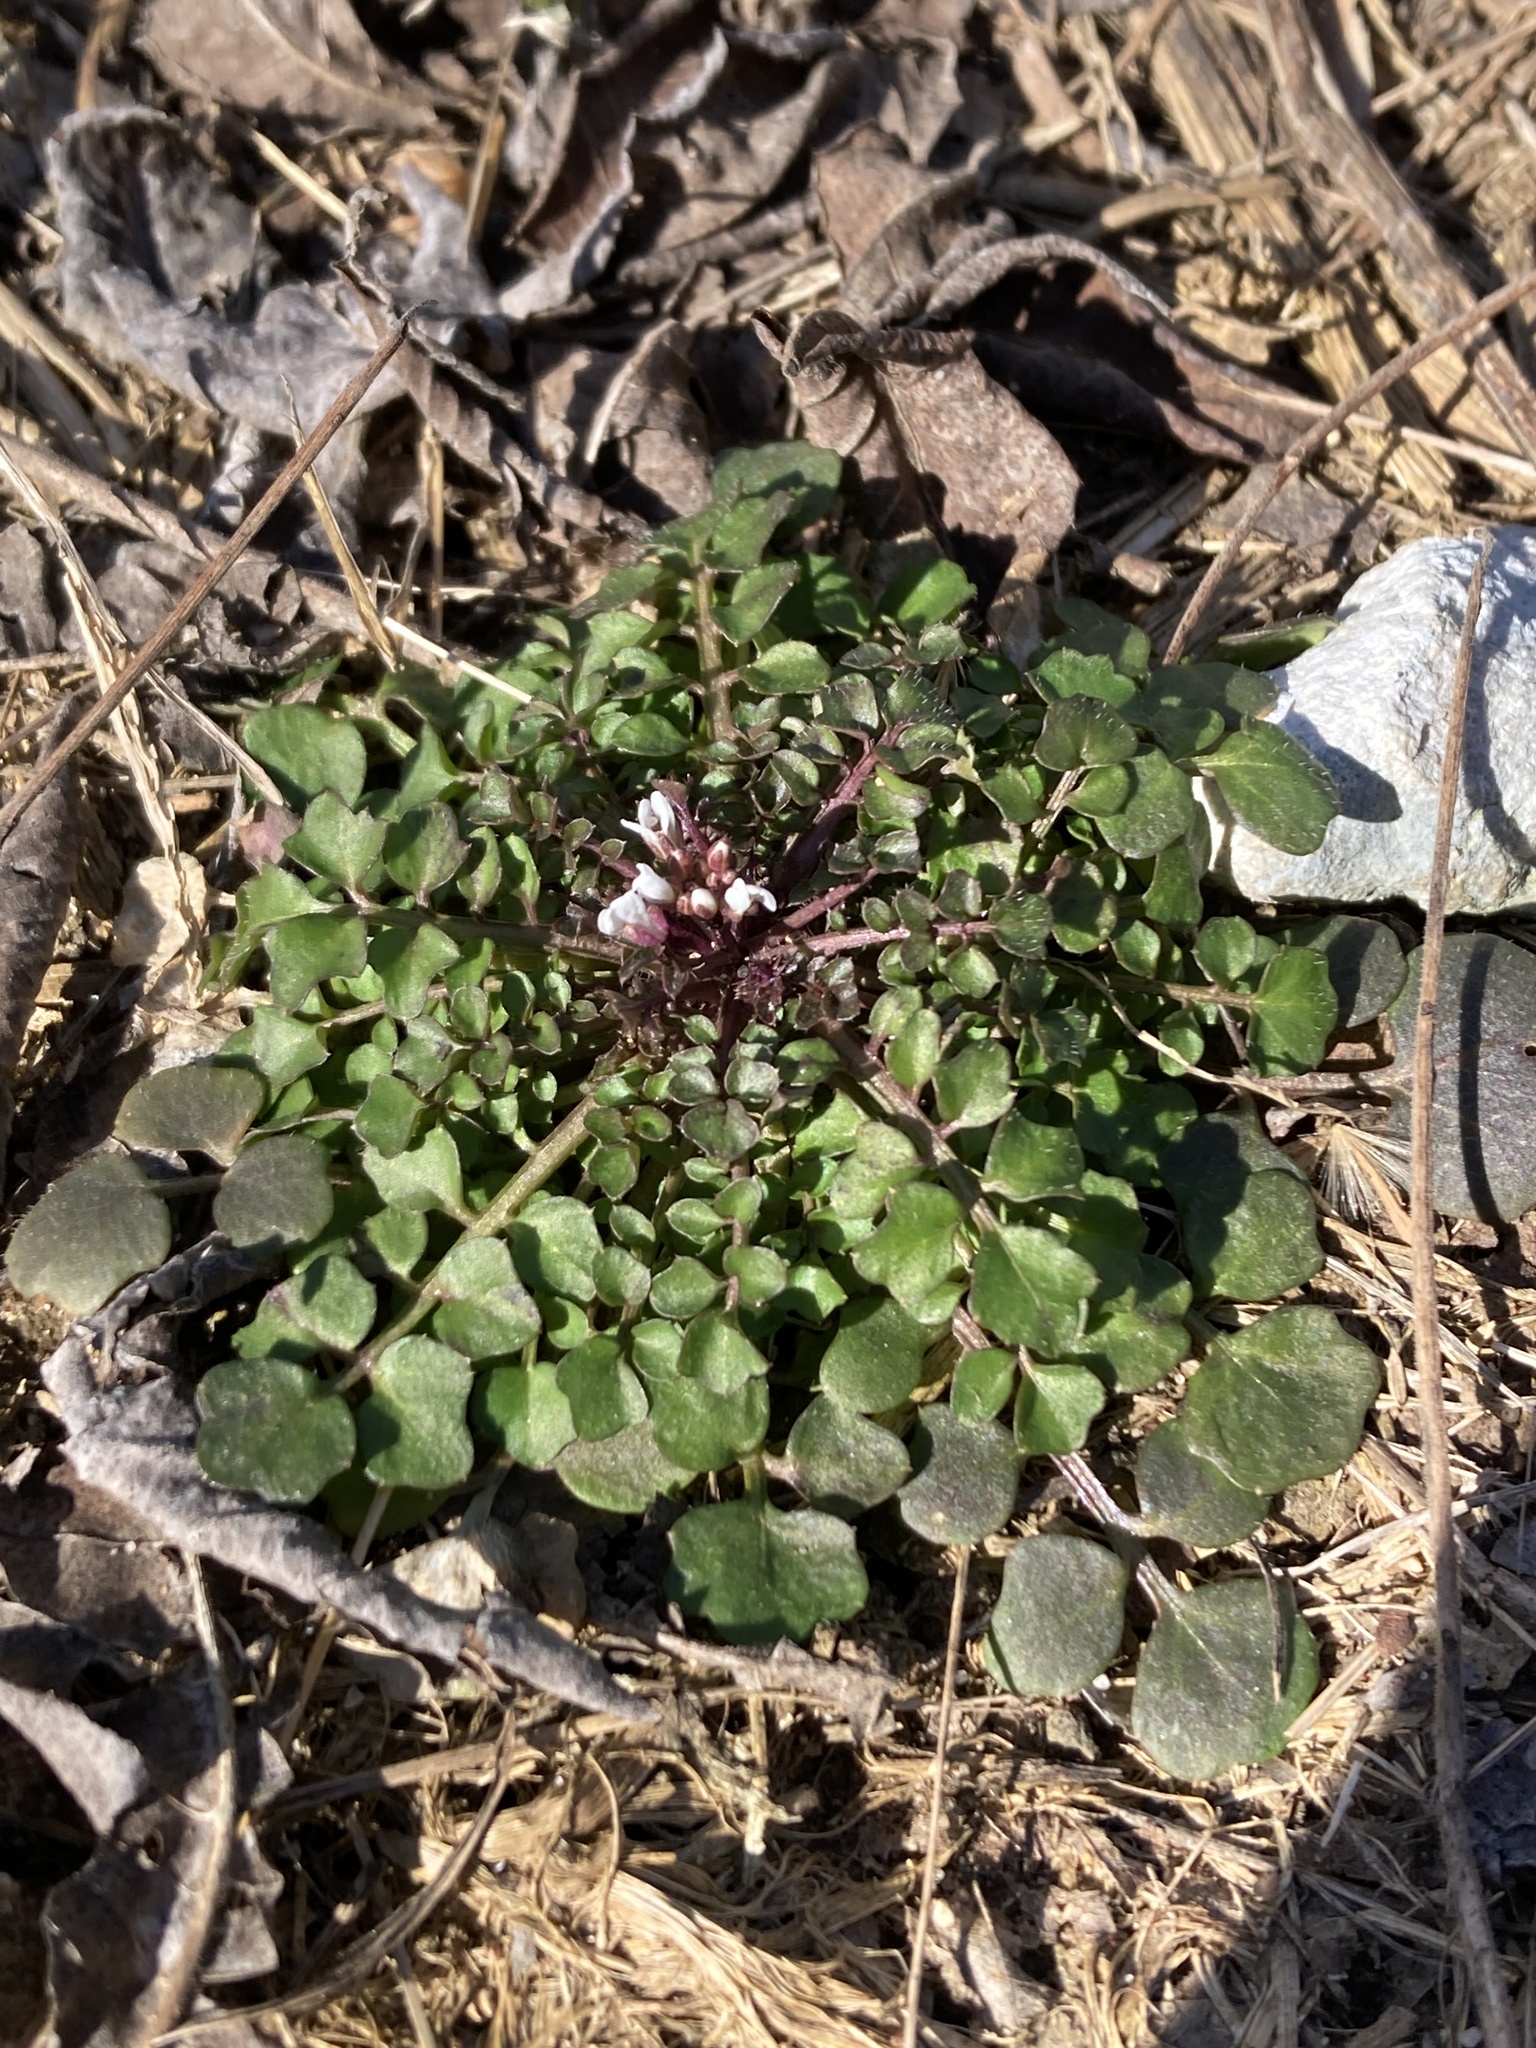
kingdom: Plantae
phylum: Tracheophyta
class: Magnoliopsida
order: Brassicales
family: Brassicaceae
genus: Cardamine
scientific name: Cardamine hirsuta
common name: Hairy bittercress
